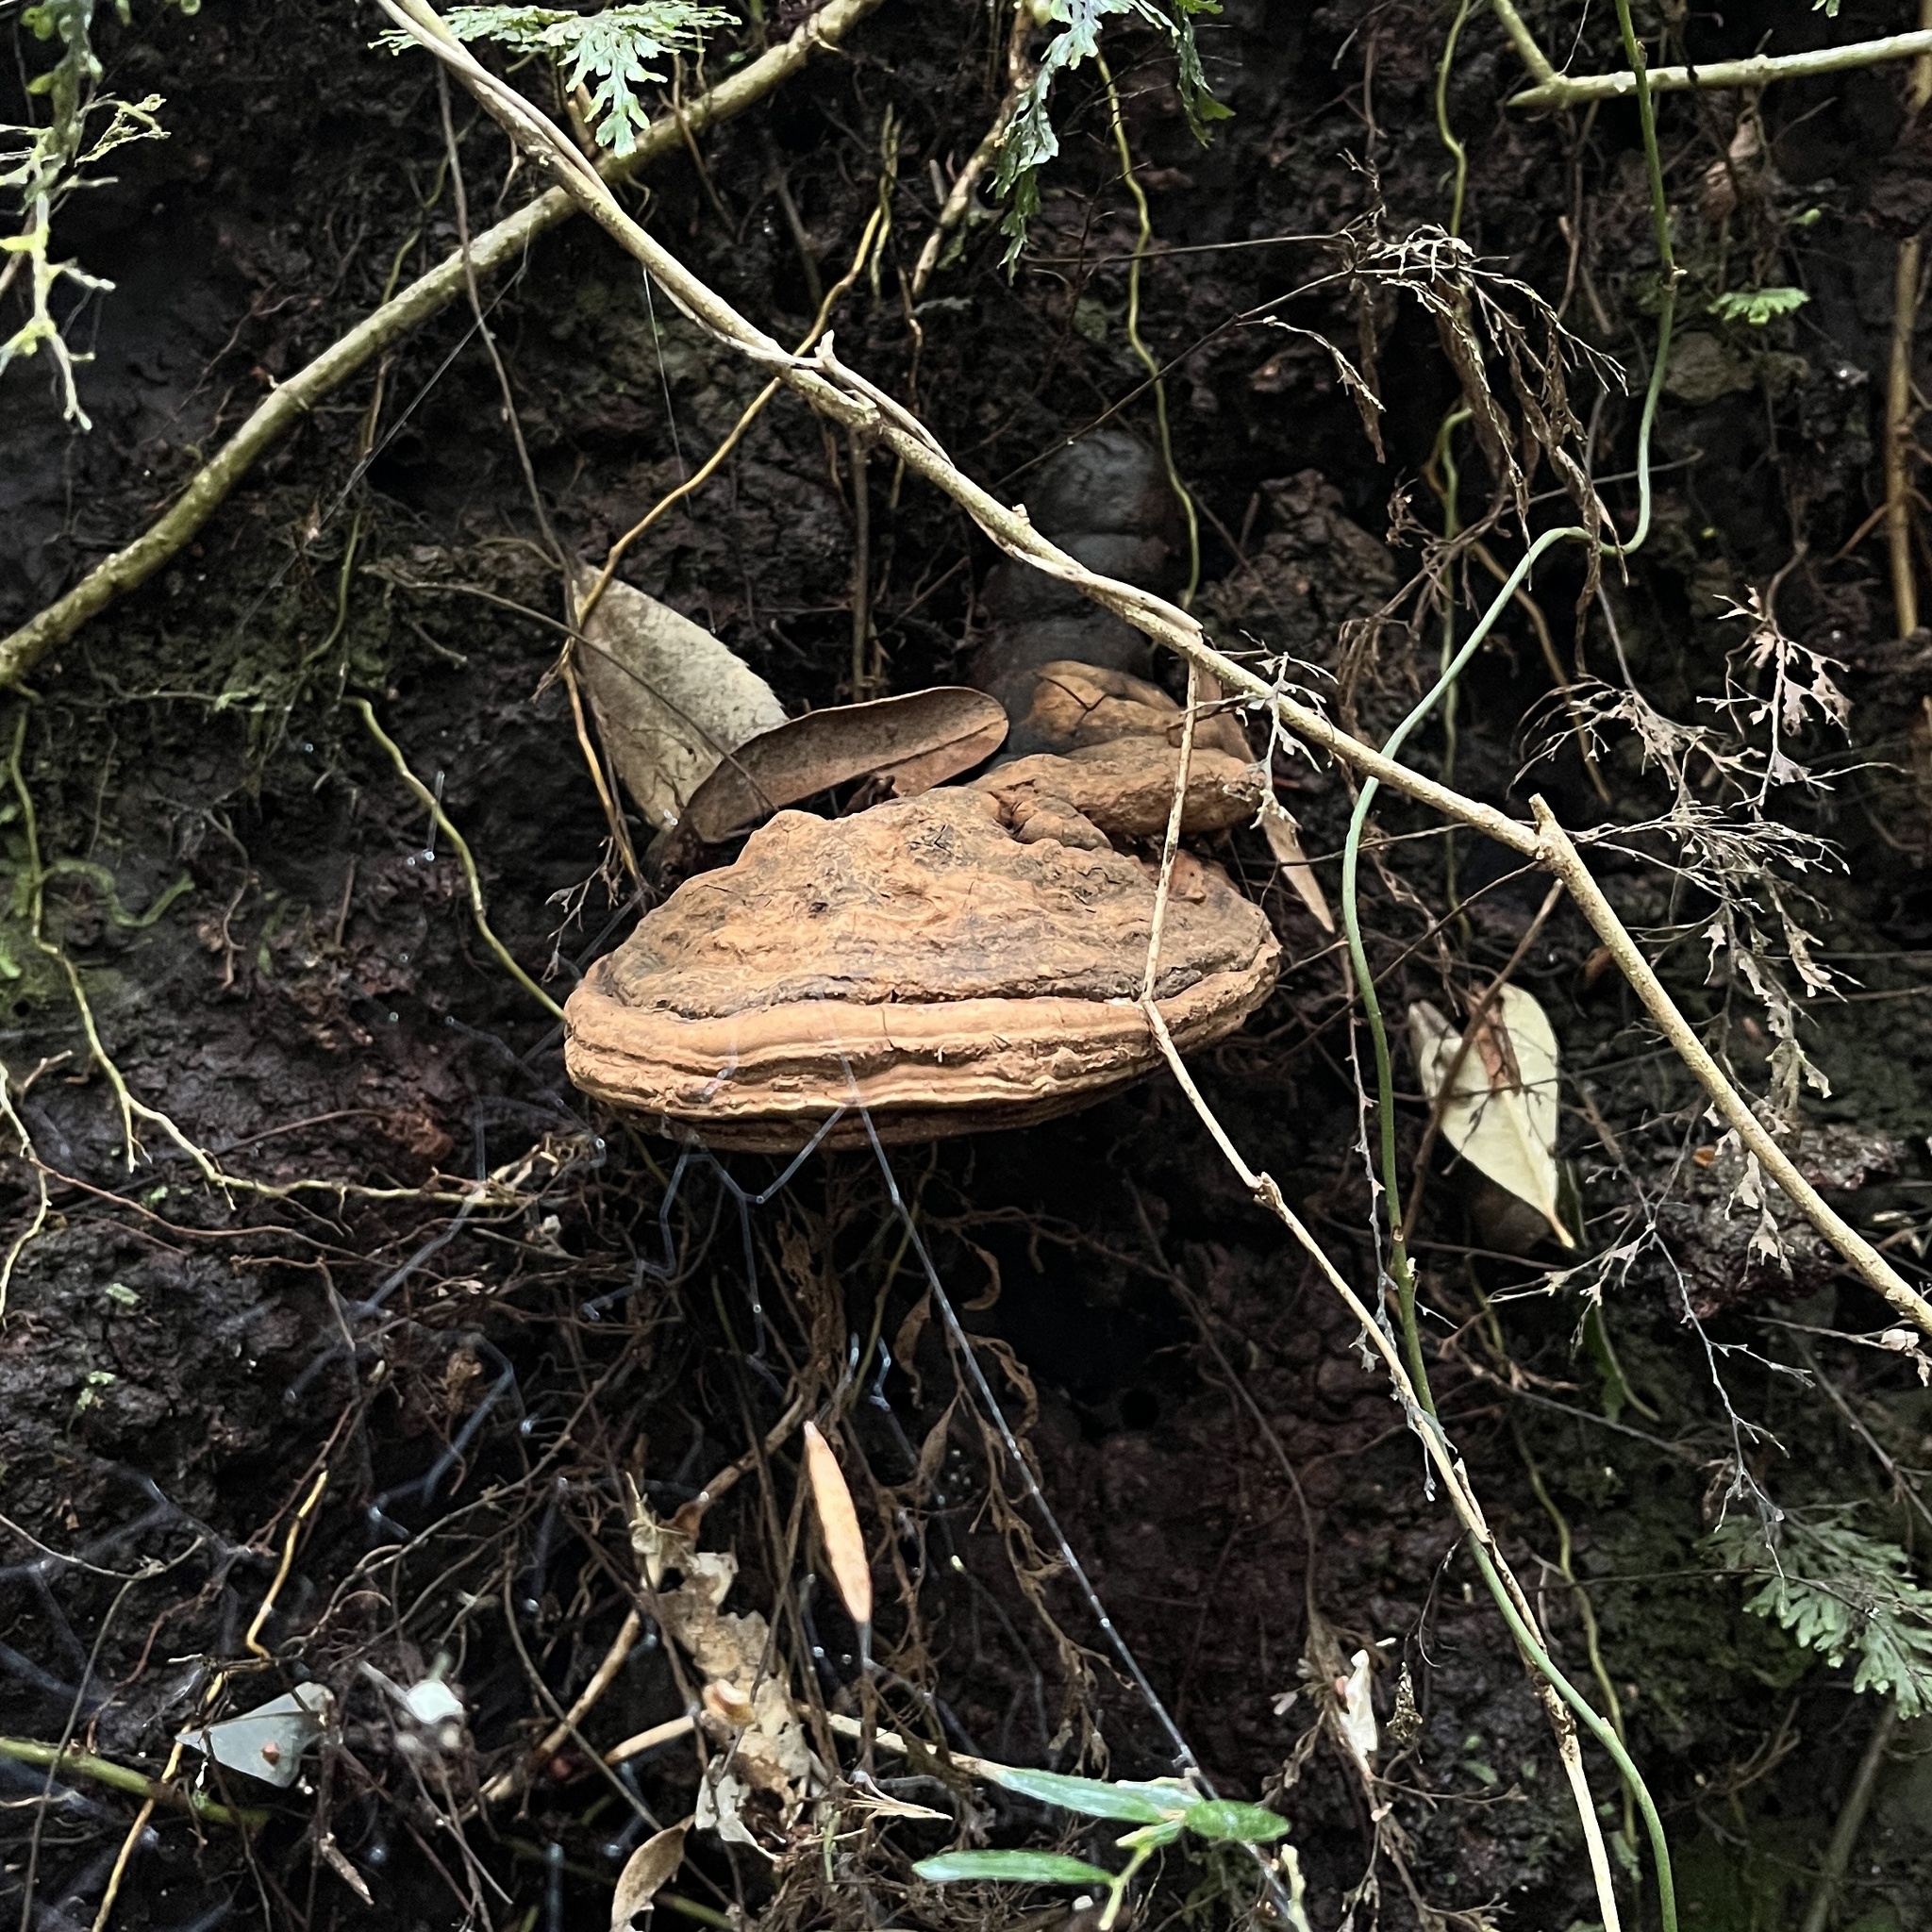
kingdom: Fungi
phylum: Basidiomycota
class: Agaricomycetes
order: Polyporales
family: Polyporaceae
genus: Ganoderma
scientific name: Ganoderma australe
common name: Southern bracket
